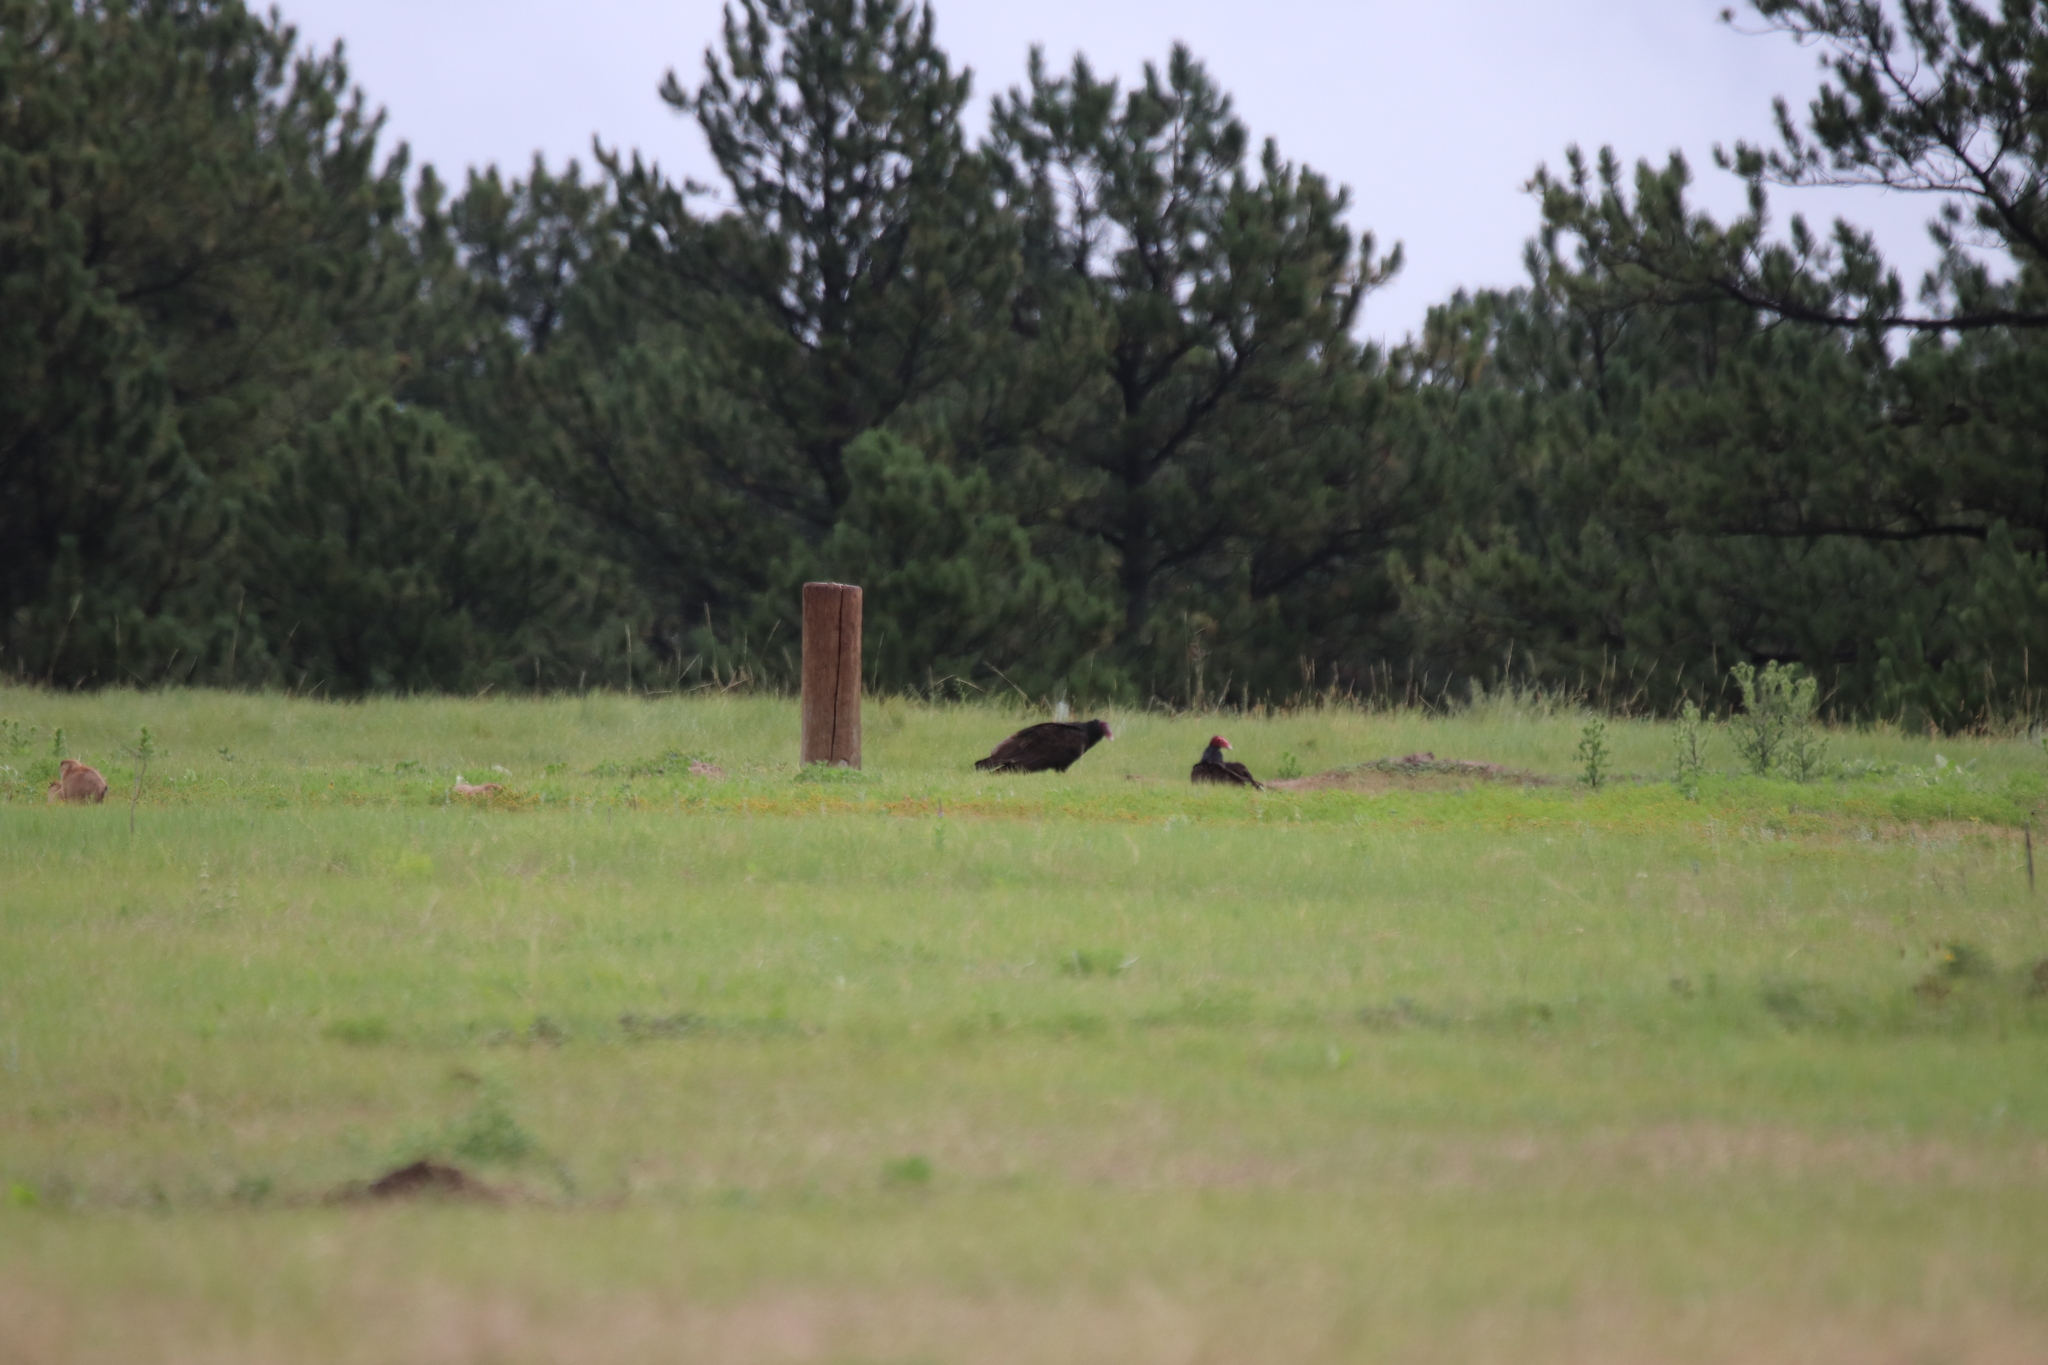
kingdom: Animalia
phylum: Chordata
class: Aves
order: Accipitriformes
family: Cathartidae
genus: Cathartes
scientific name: Cathartes aura
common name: Turkey vulture
